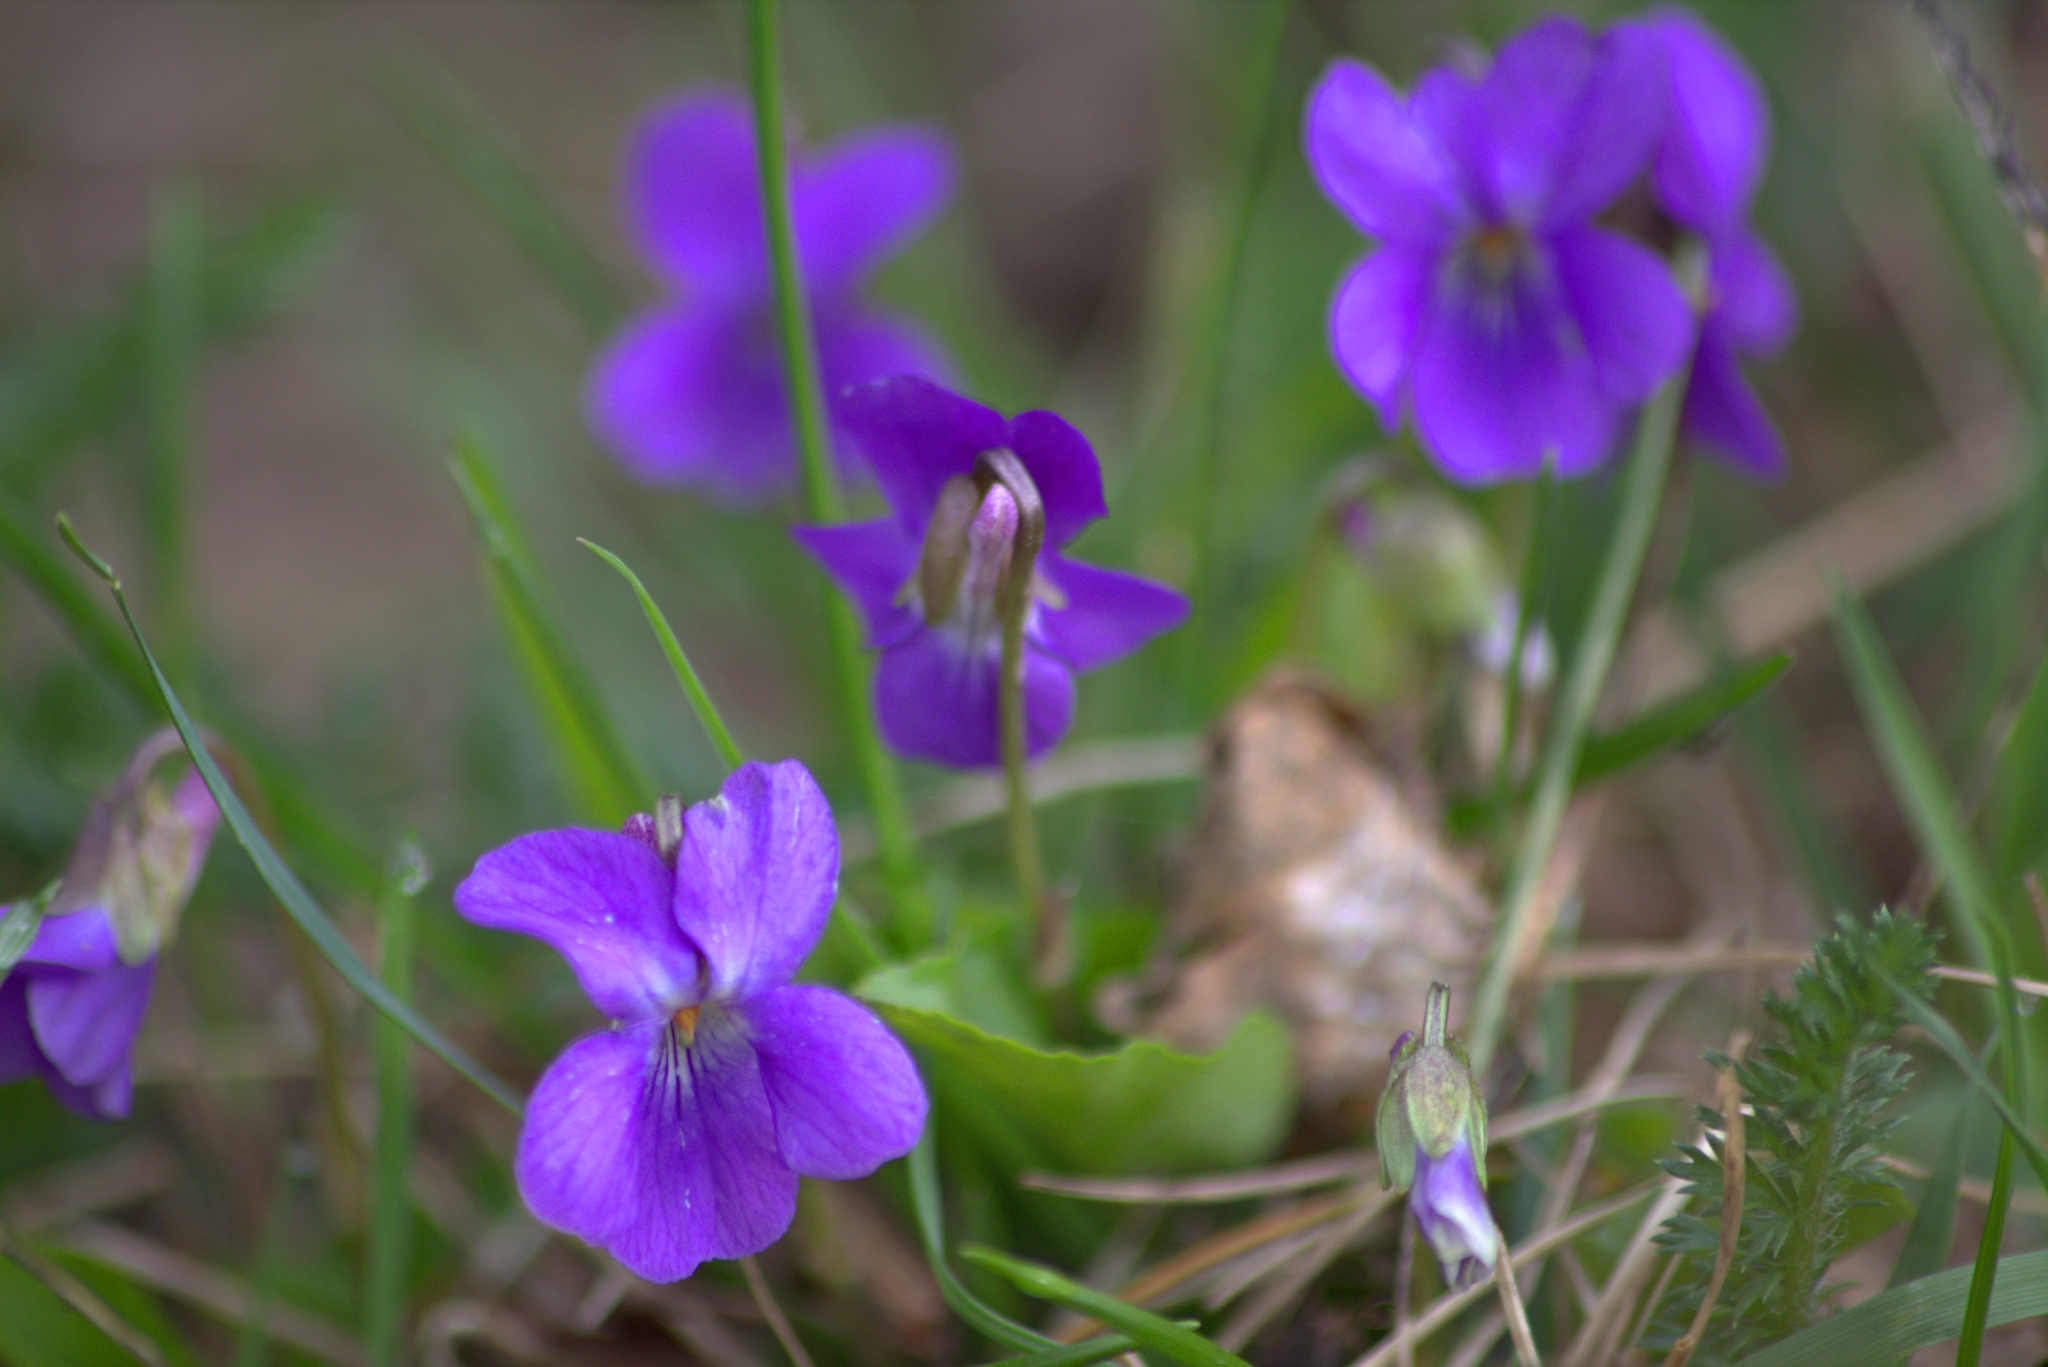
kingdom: Plantae
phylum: Tracheophyta
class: Magnoliopsida
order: Malpighiales
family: Violaceae
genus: Viola
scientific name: Viola odorata
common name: Sweet violet
